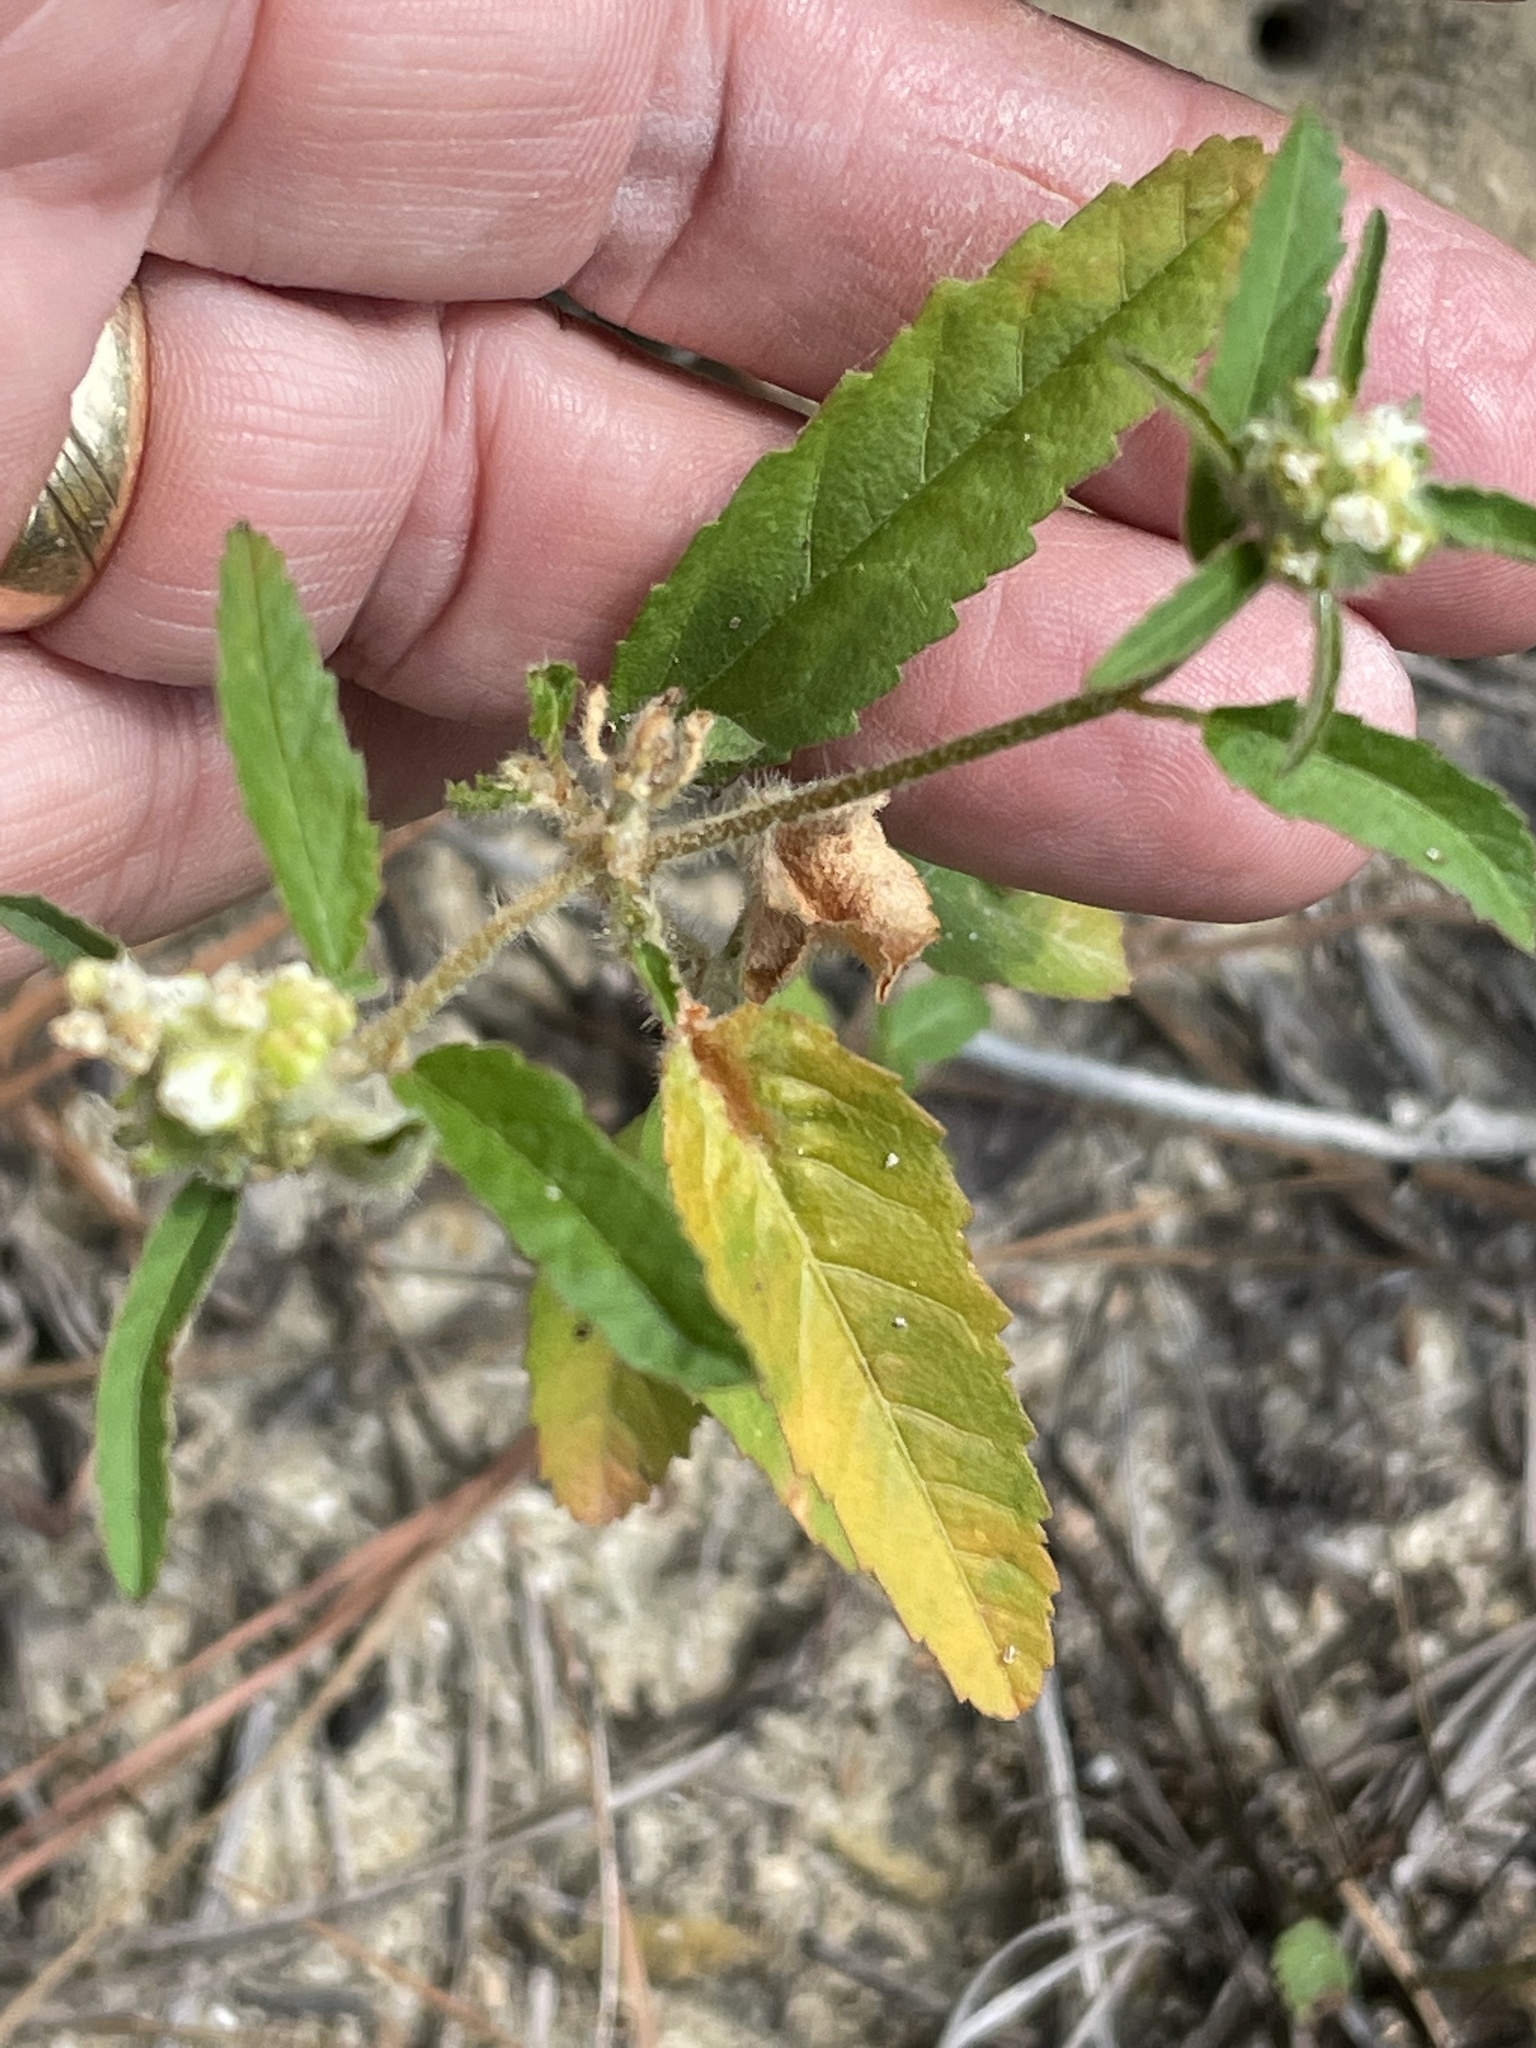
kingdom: Plantae
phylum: Tracheophyta
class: Magnoliopsida
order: Malpighiales
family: Euphorbiaceae
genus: Croton
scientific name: Croton glandulosus
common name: Tropic croton
